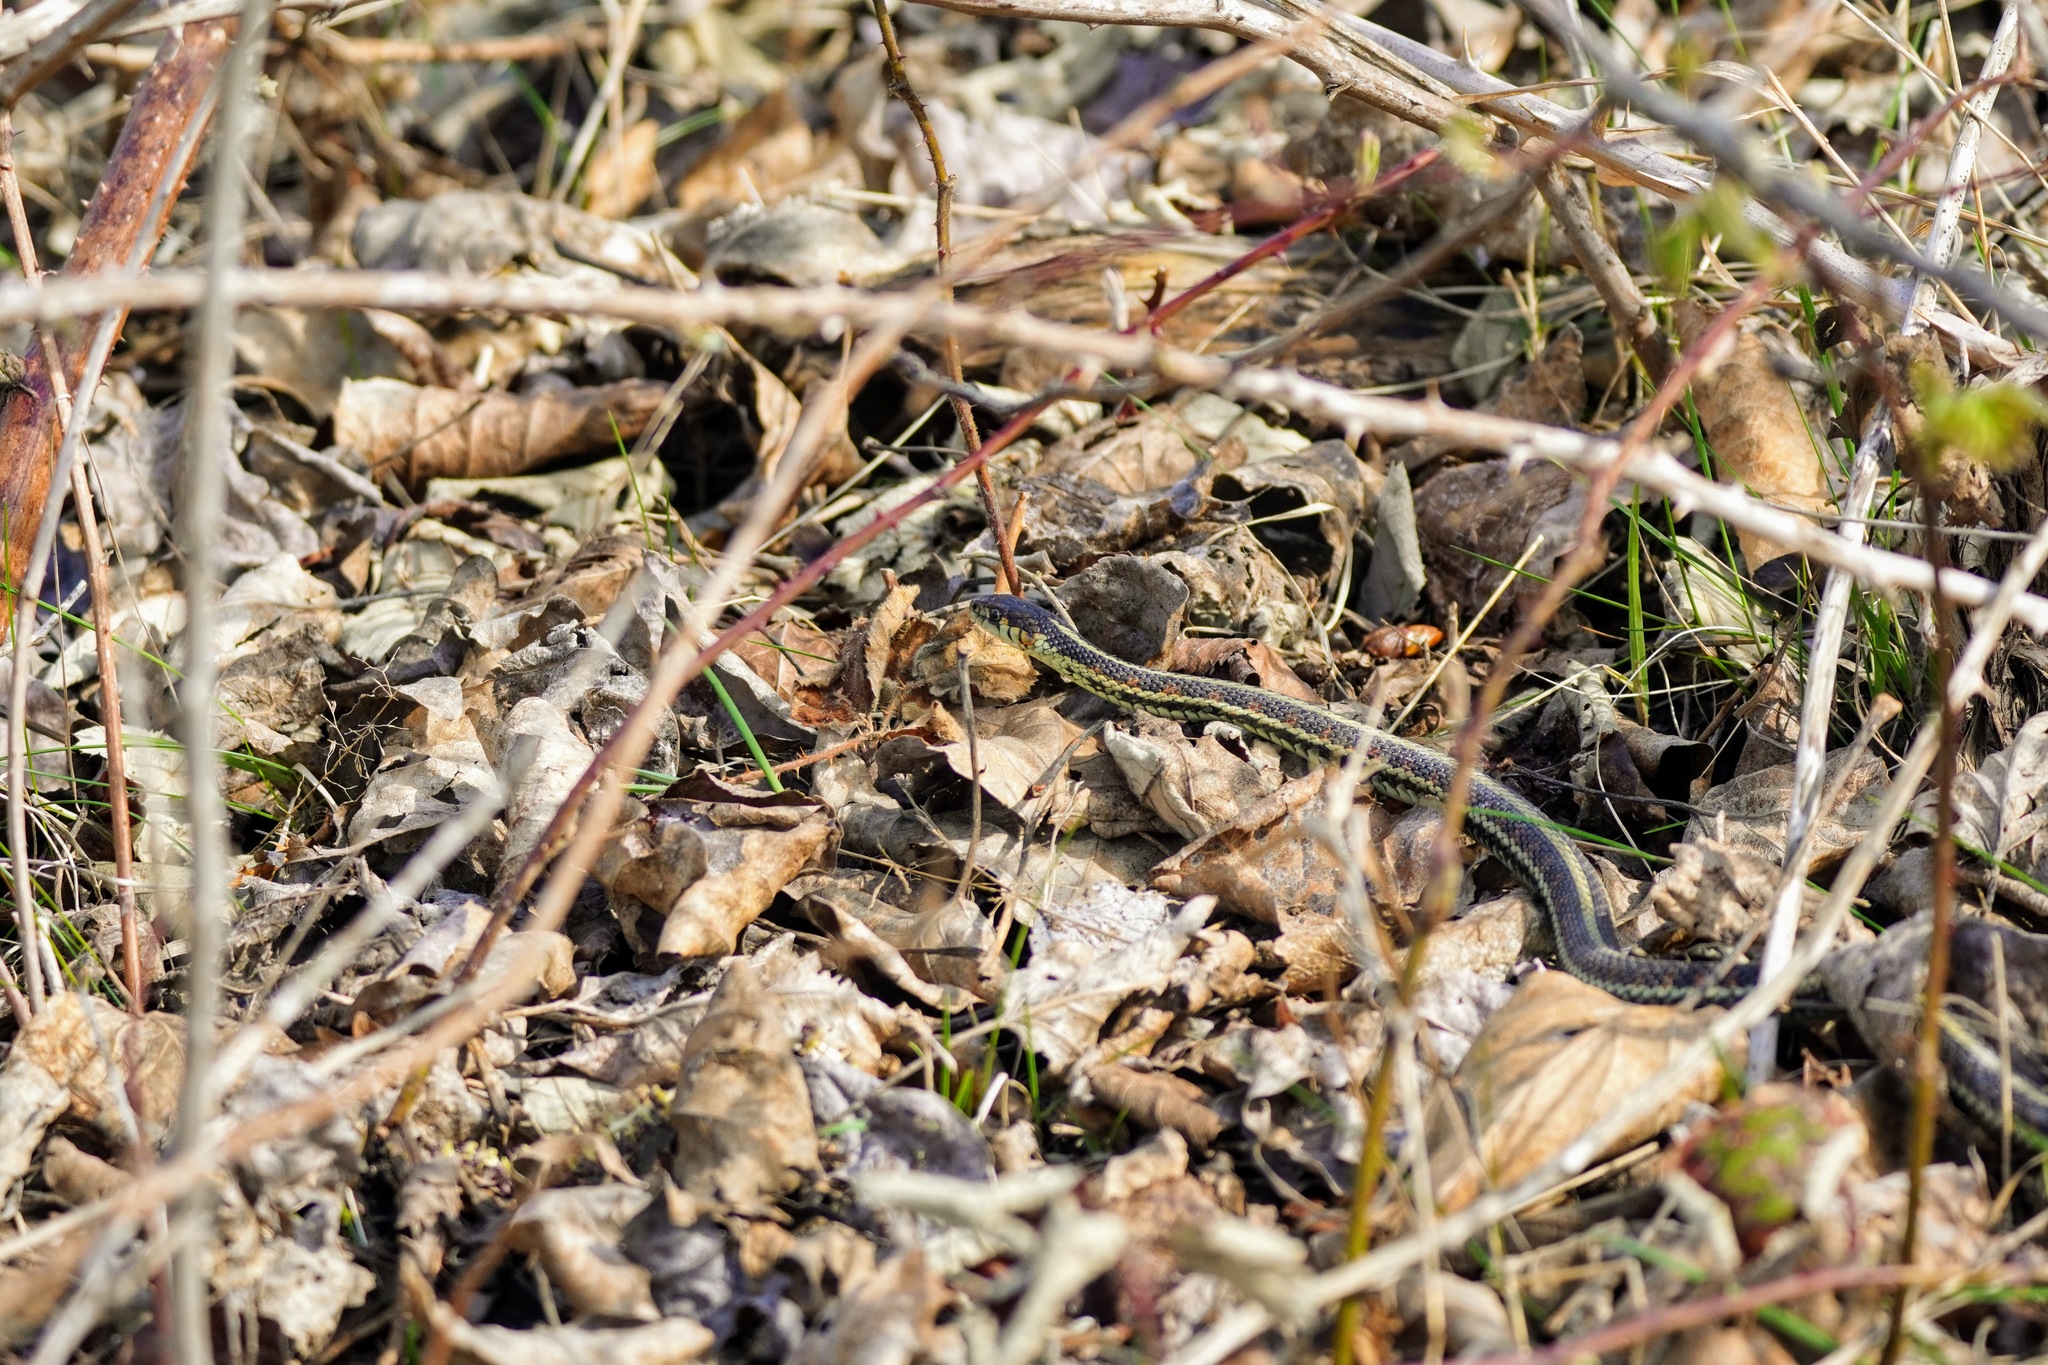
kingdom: Animalia
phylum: Chordata
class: Squamata
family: Colubridae
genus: Thamnophis
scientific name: Thamnophis sirtalis
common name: Common garter snake
